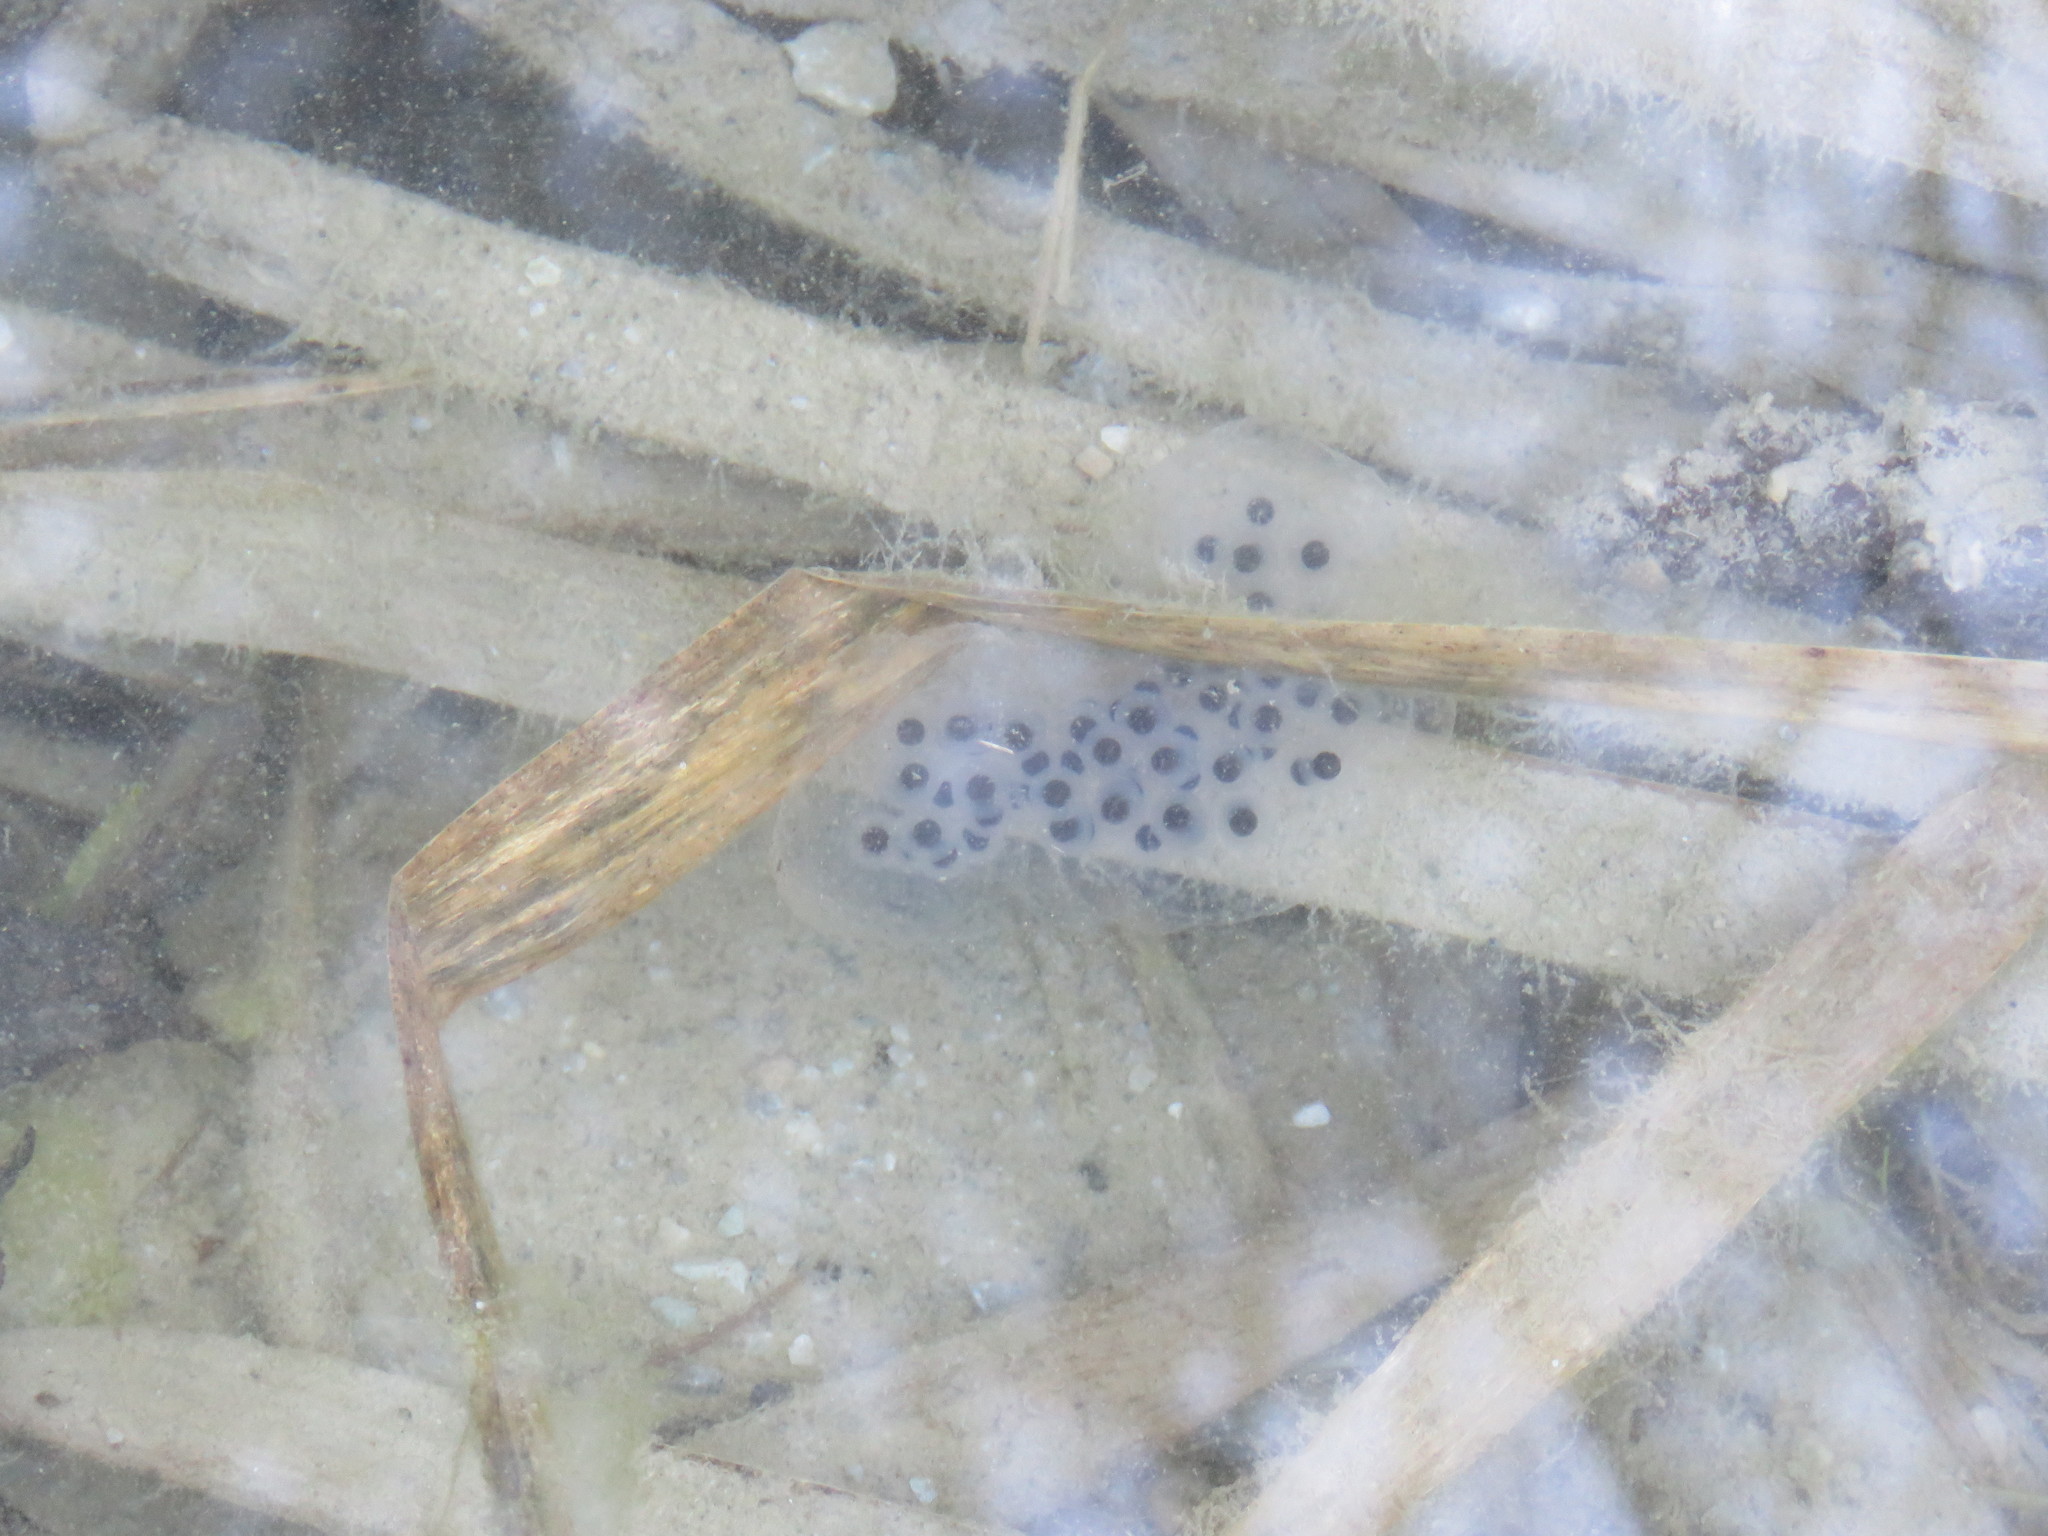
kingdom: Animalia
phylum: Chordata
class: Amphibia
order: Caudata
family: Ambystomatidae
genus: Ambystoma
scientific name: Ambystoma maculatum
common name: Spotted salamander
